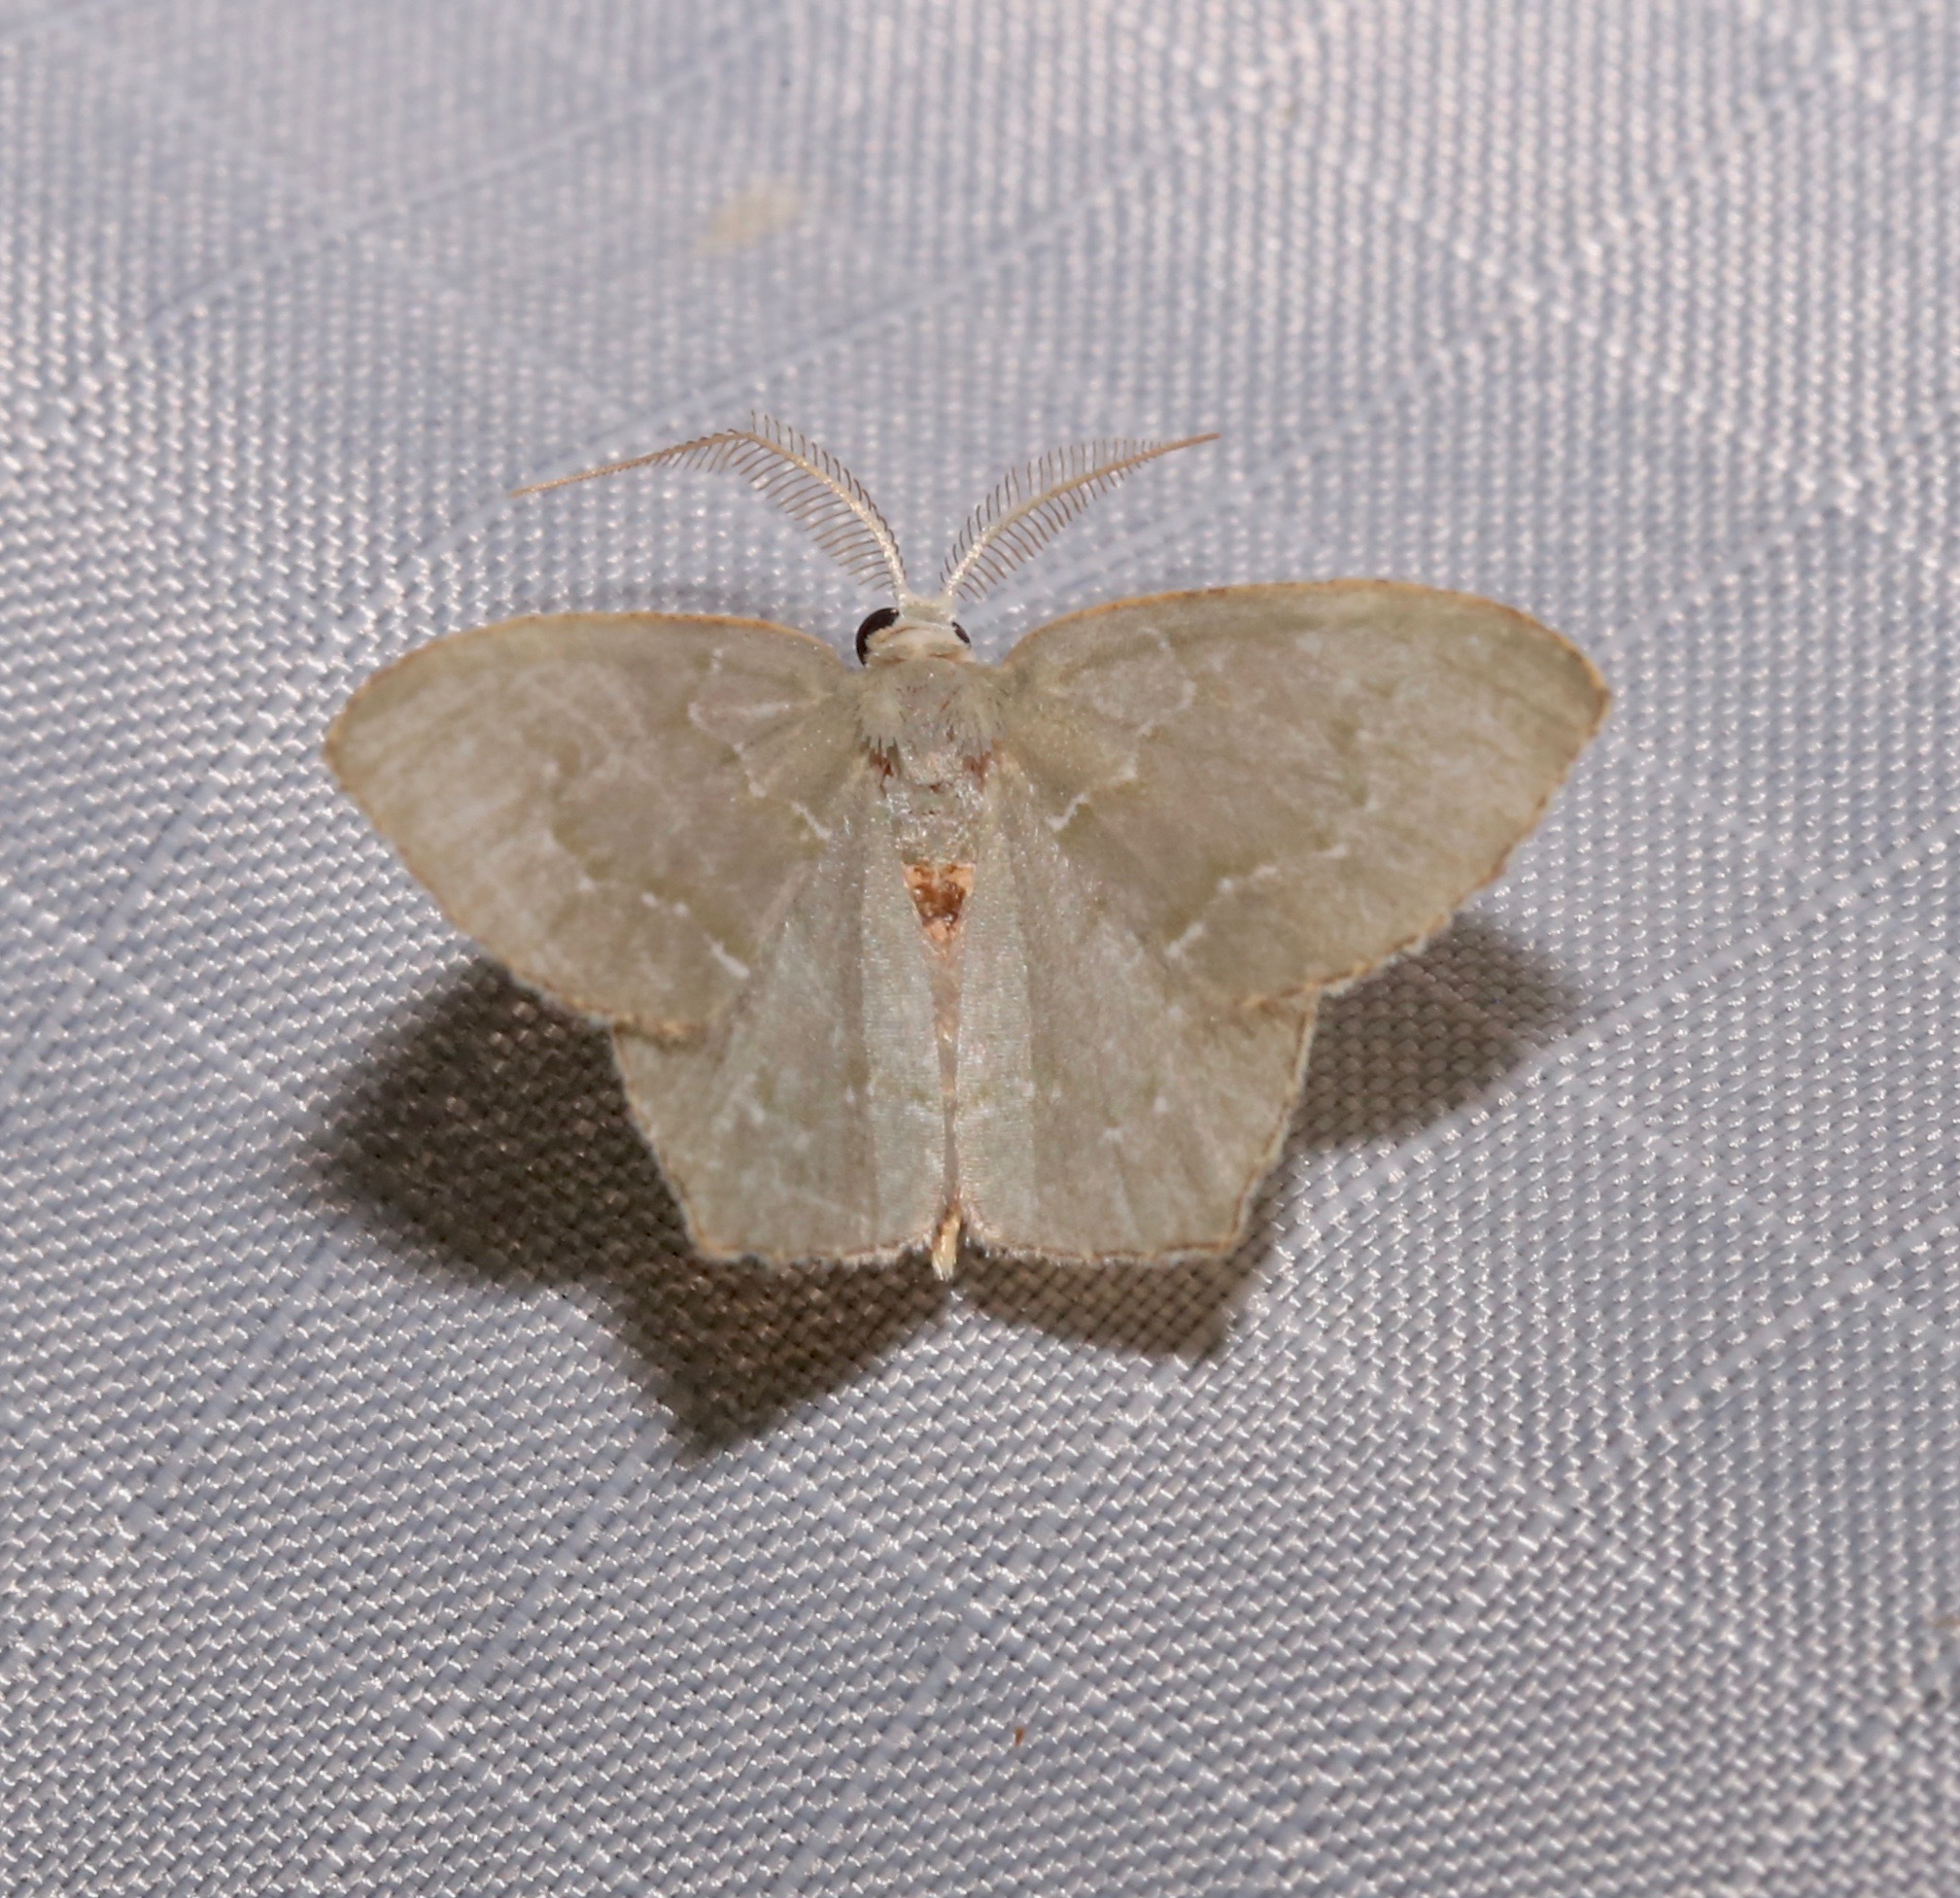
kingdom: Animalia
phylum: Arthropoda
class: Insecta
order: Lepidoptera
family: Geometridae
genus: Chloropteryx
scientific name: Chloropteryx tepperaria
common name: Angle winged emerald moth
